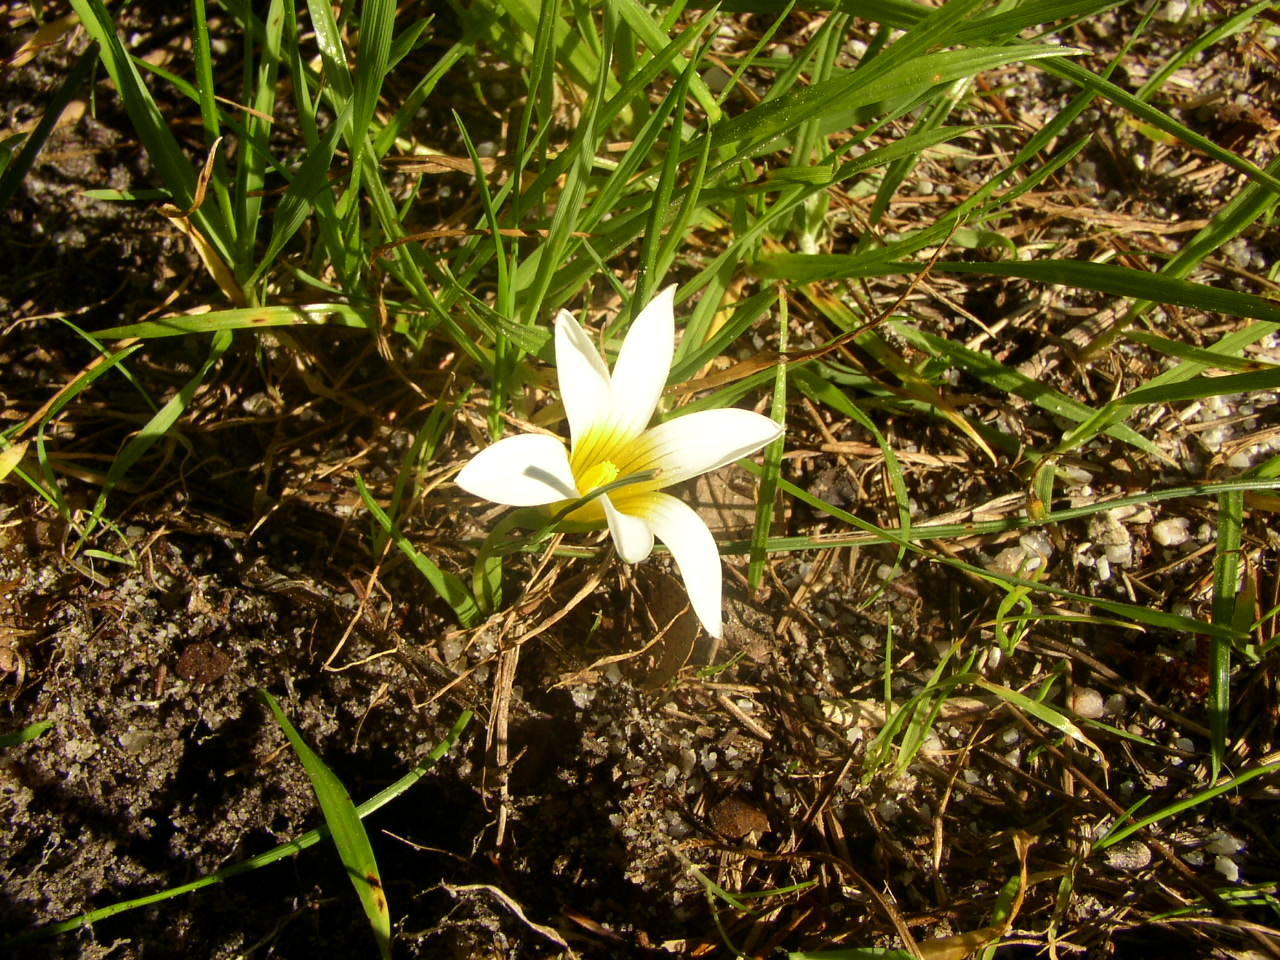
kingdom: Plantae
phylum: Tracheophyta
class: Liliopsida
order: Asparagales
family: Iridaceae
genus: Romulea
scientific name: Romulea flava
